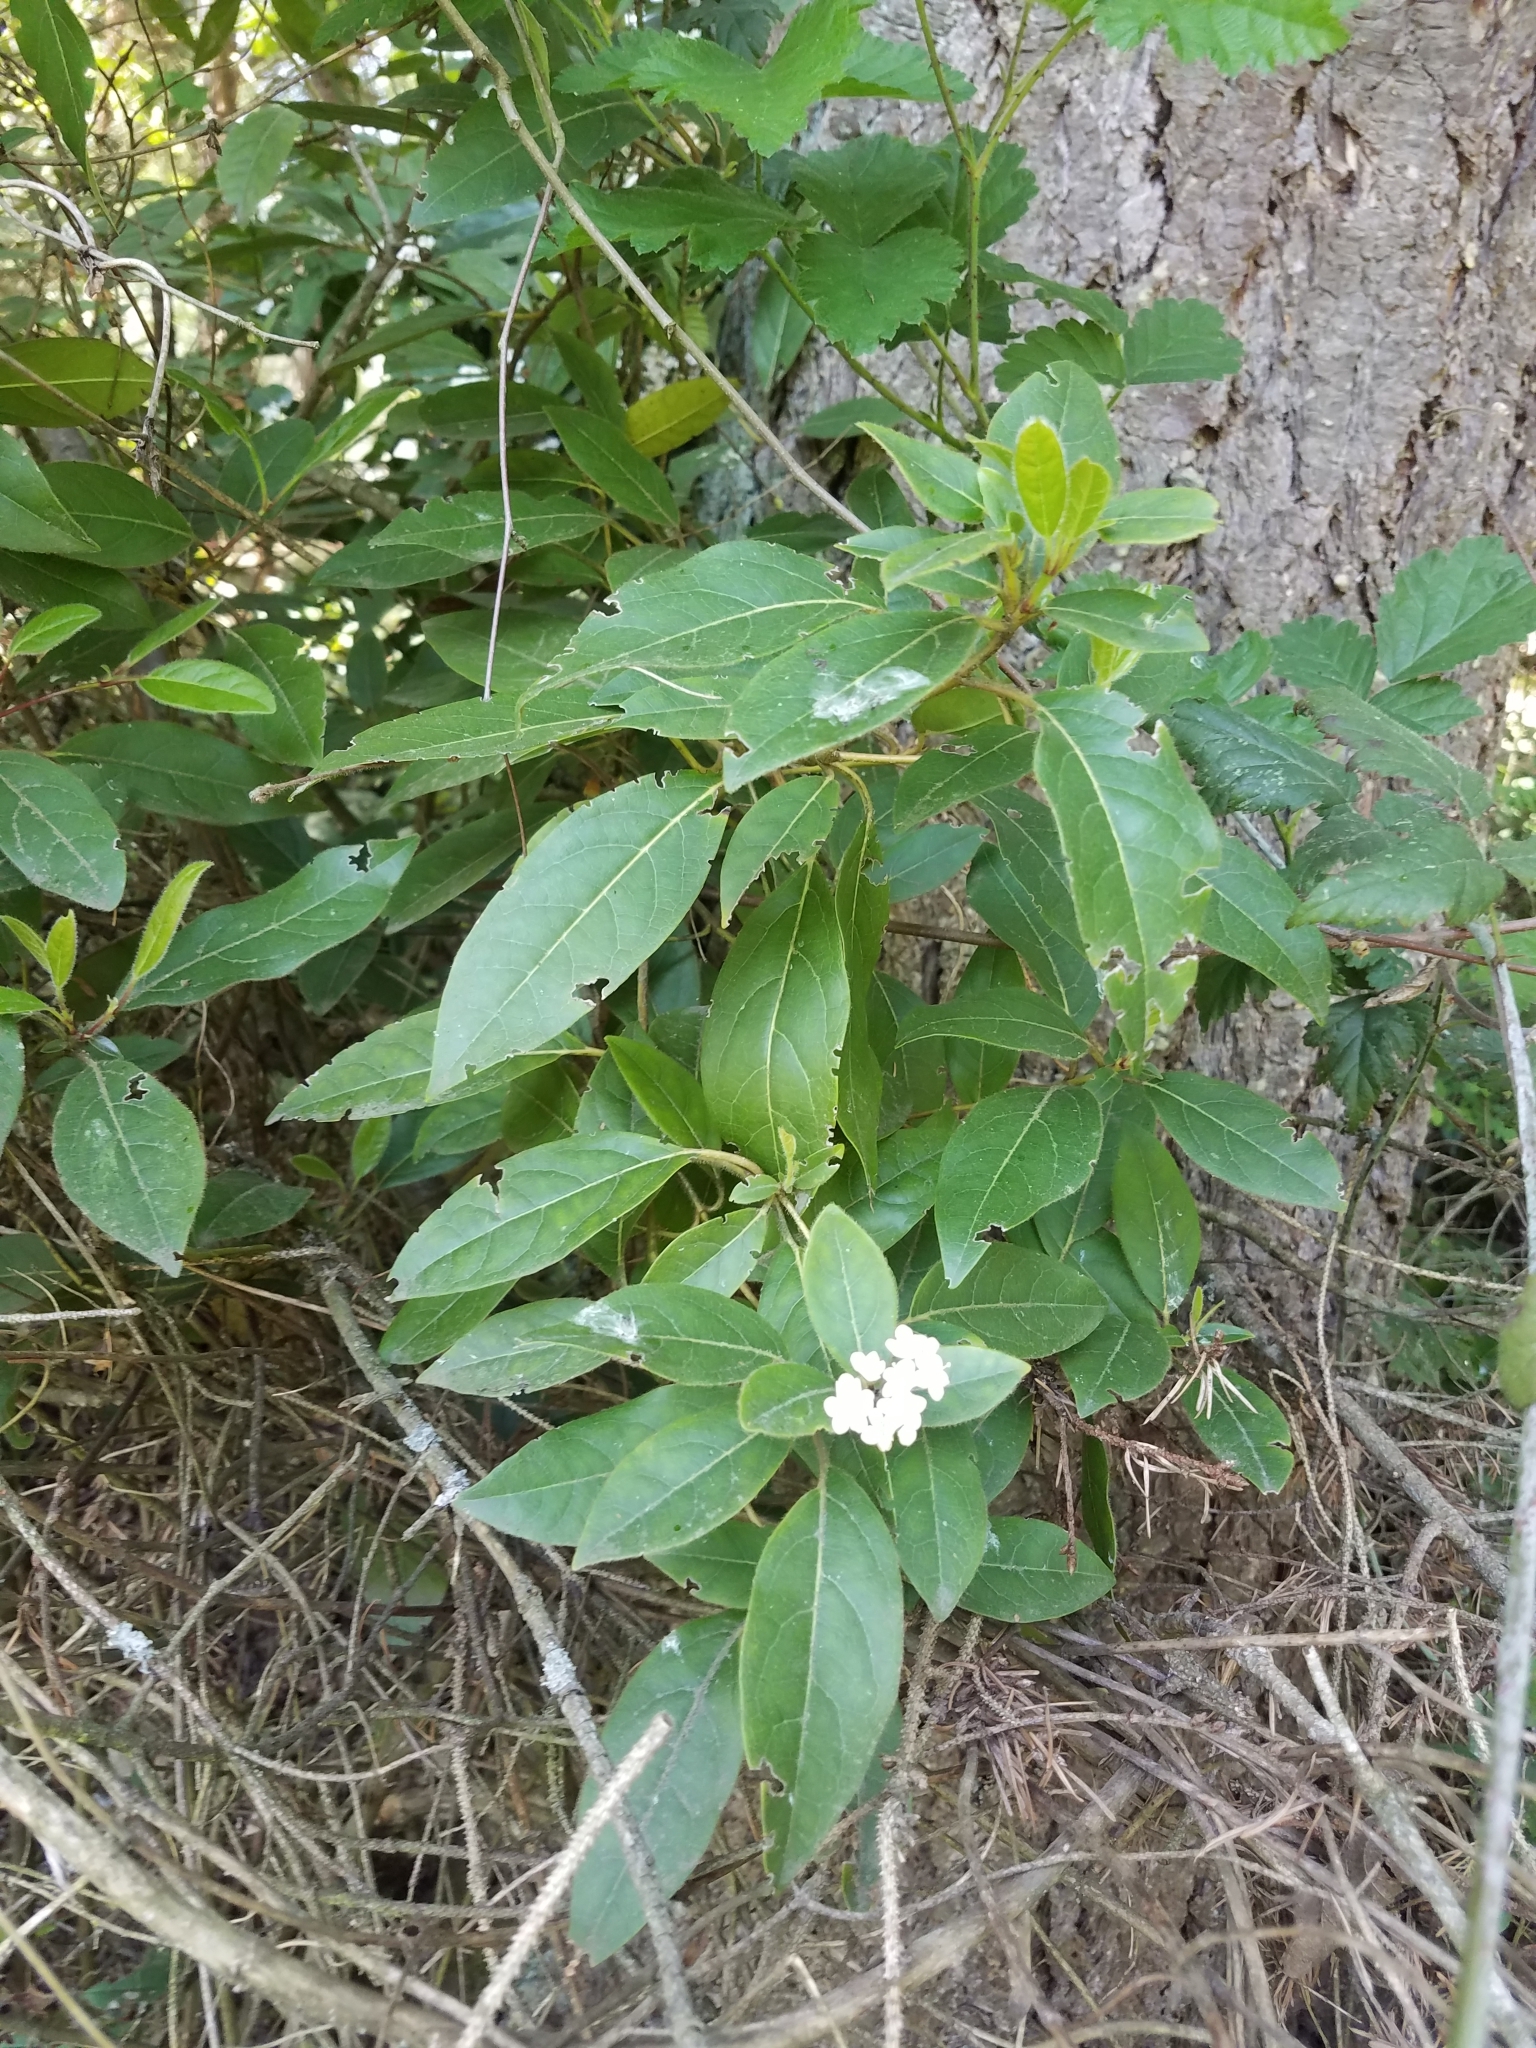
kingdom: Plantae
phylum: Tracheophyta
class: Magnoliopsida
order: Dipsacales
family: Viburnaceae
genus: Viburnum
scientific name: Viburnum tinus
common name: Laurustinus
